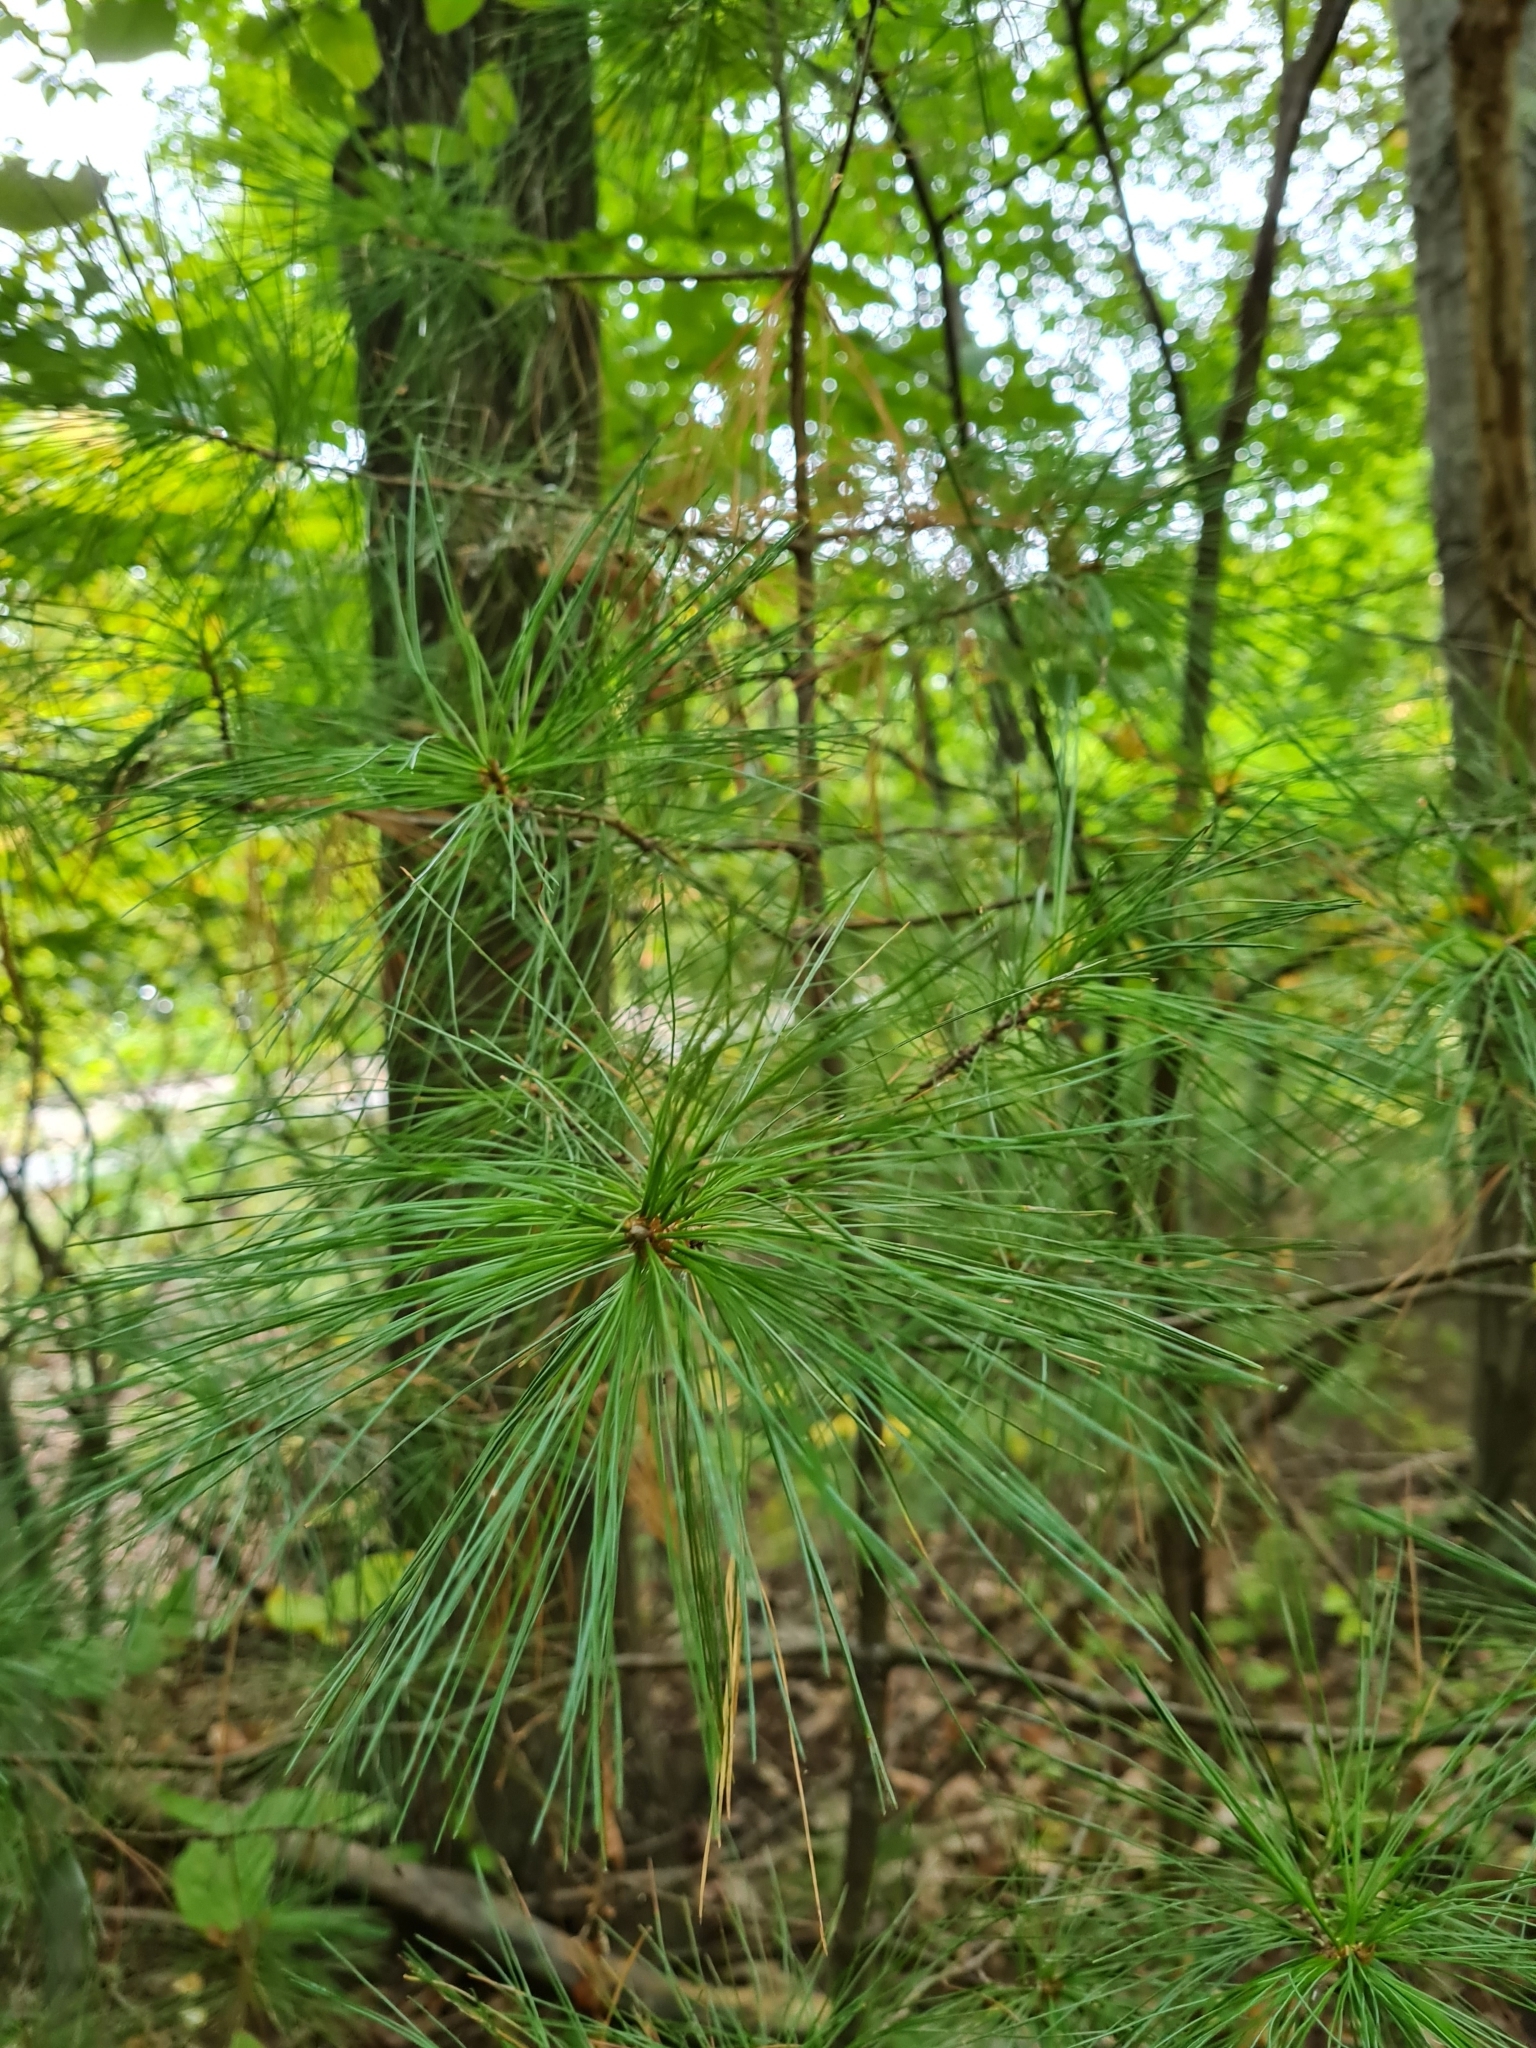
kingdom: Plantae
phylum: Tracheophyta
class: Pinopsida
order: Pinales
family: Pinaceae
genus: Pinus
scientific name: Pinus strobus
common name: Weymouth pine
